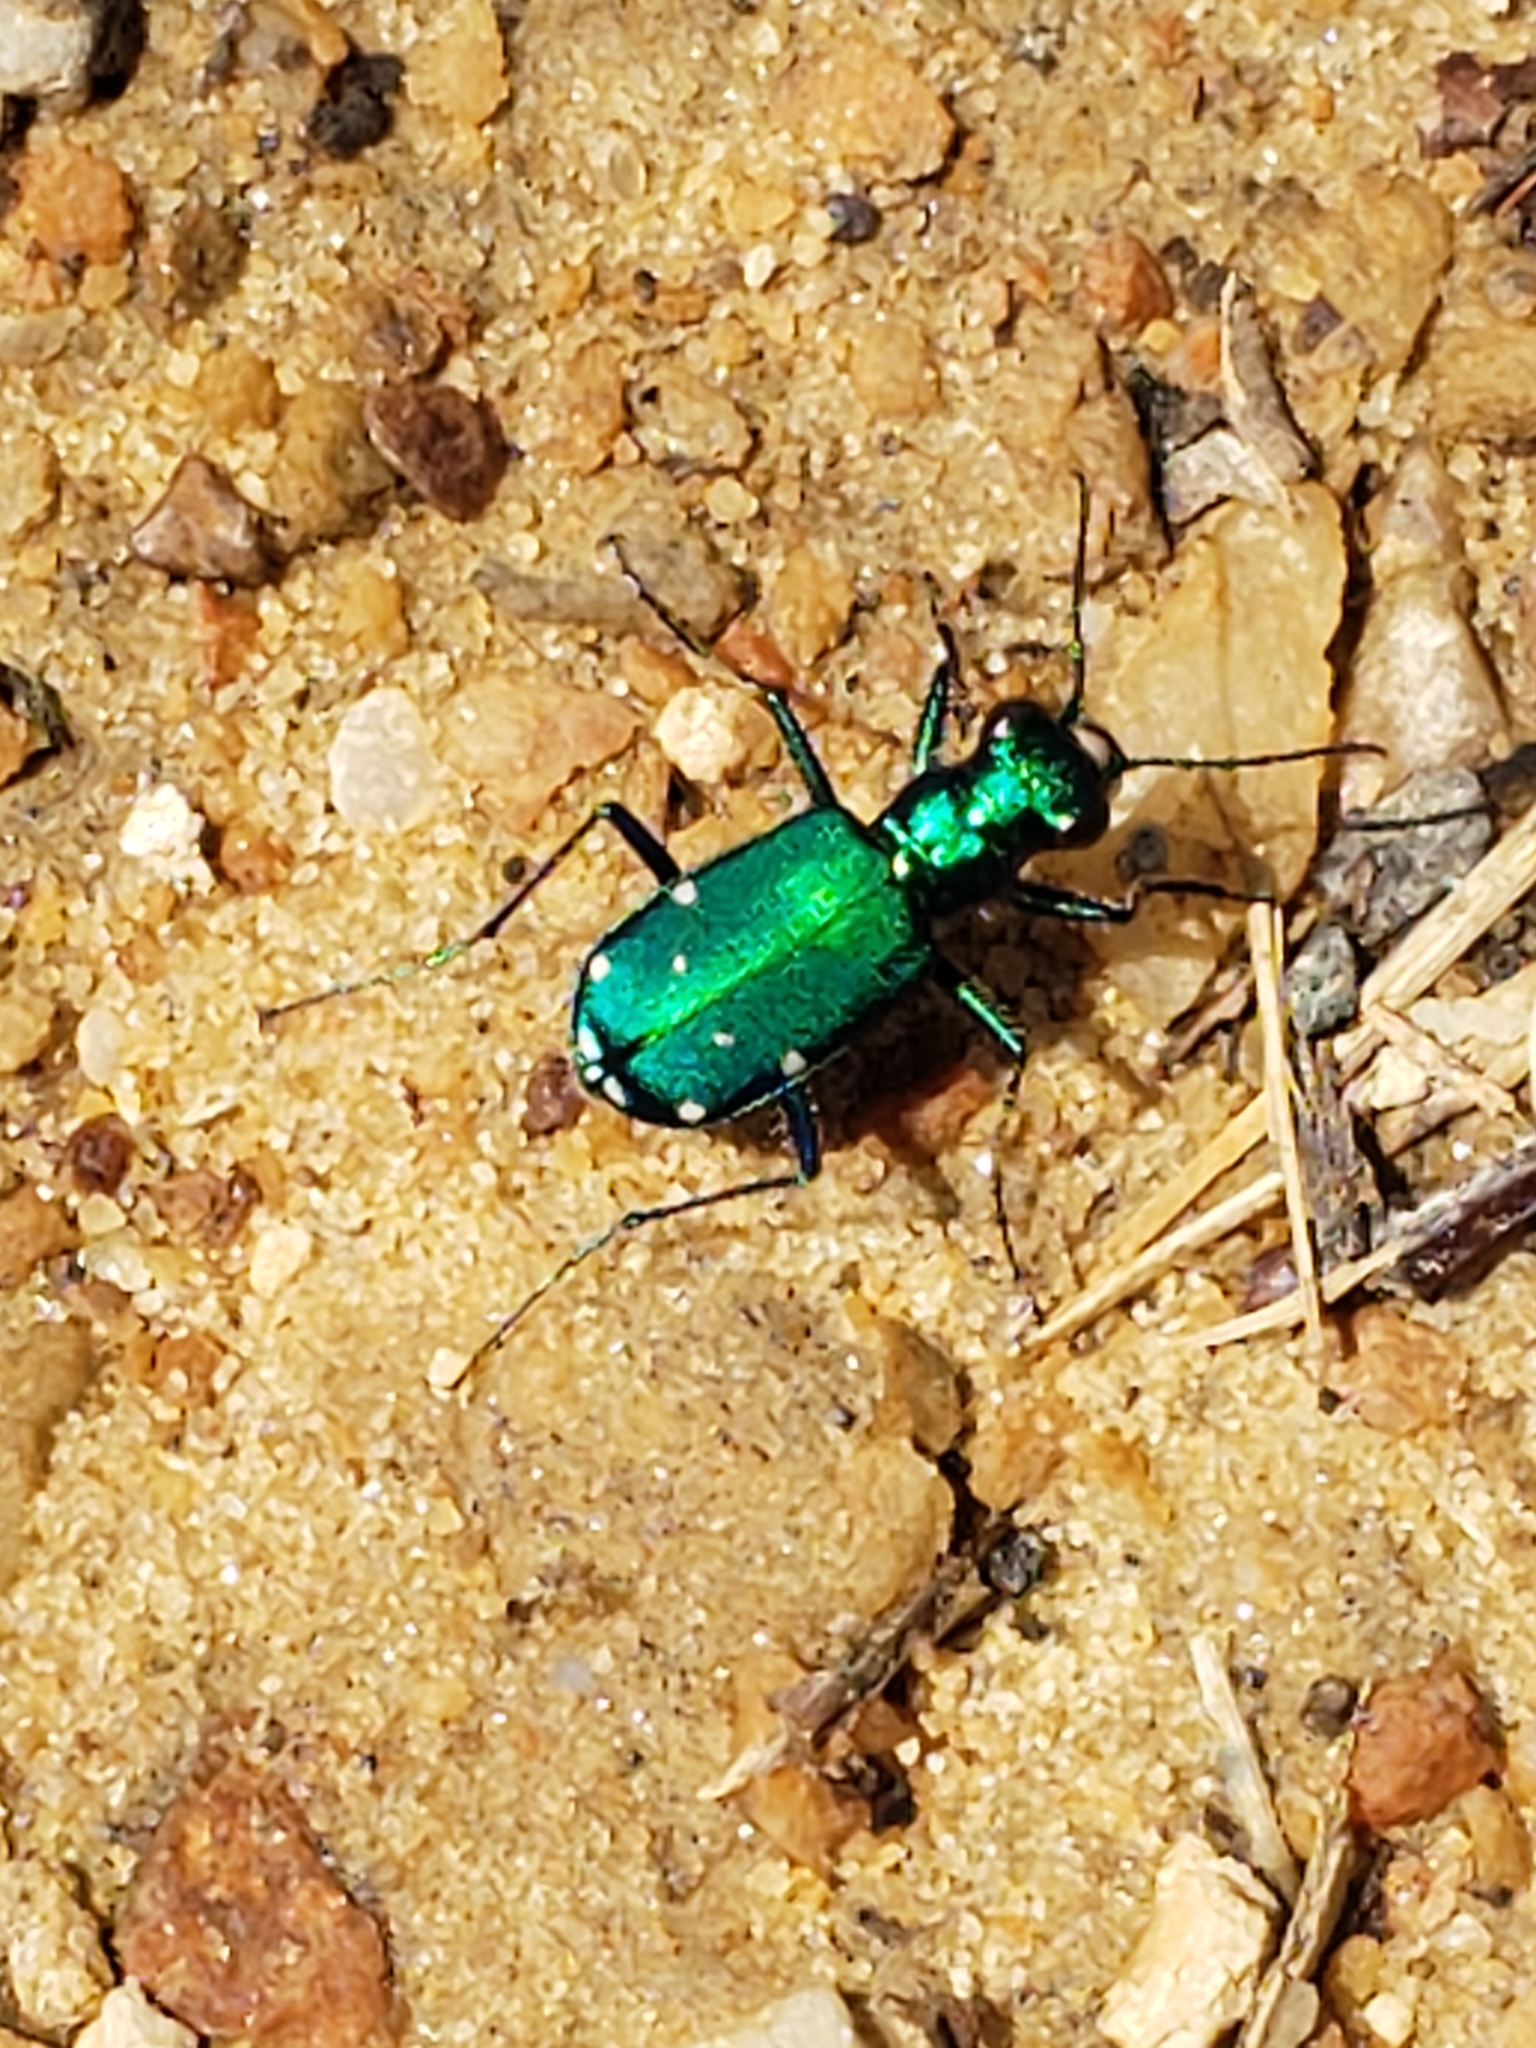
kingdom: Animalia
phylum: Arthropoda
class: Insecta
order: Coleoptera
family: Carabidae
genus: Cicindela
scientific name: Cicindela sexguttata
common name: Six-spotted tiger beetle
